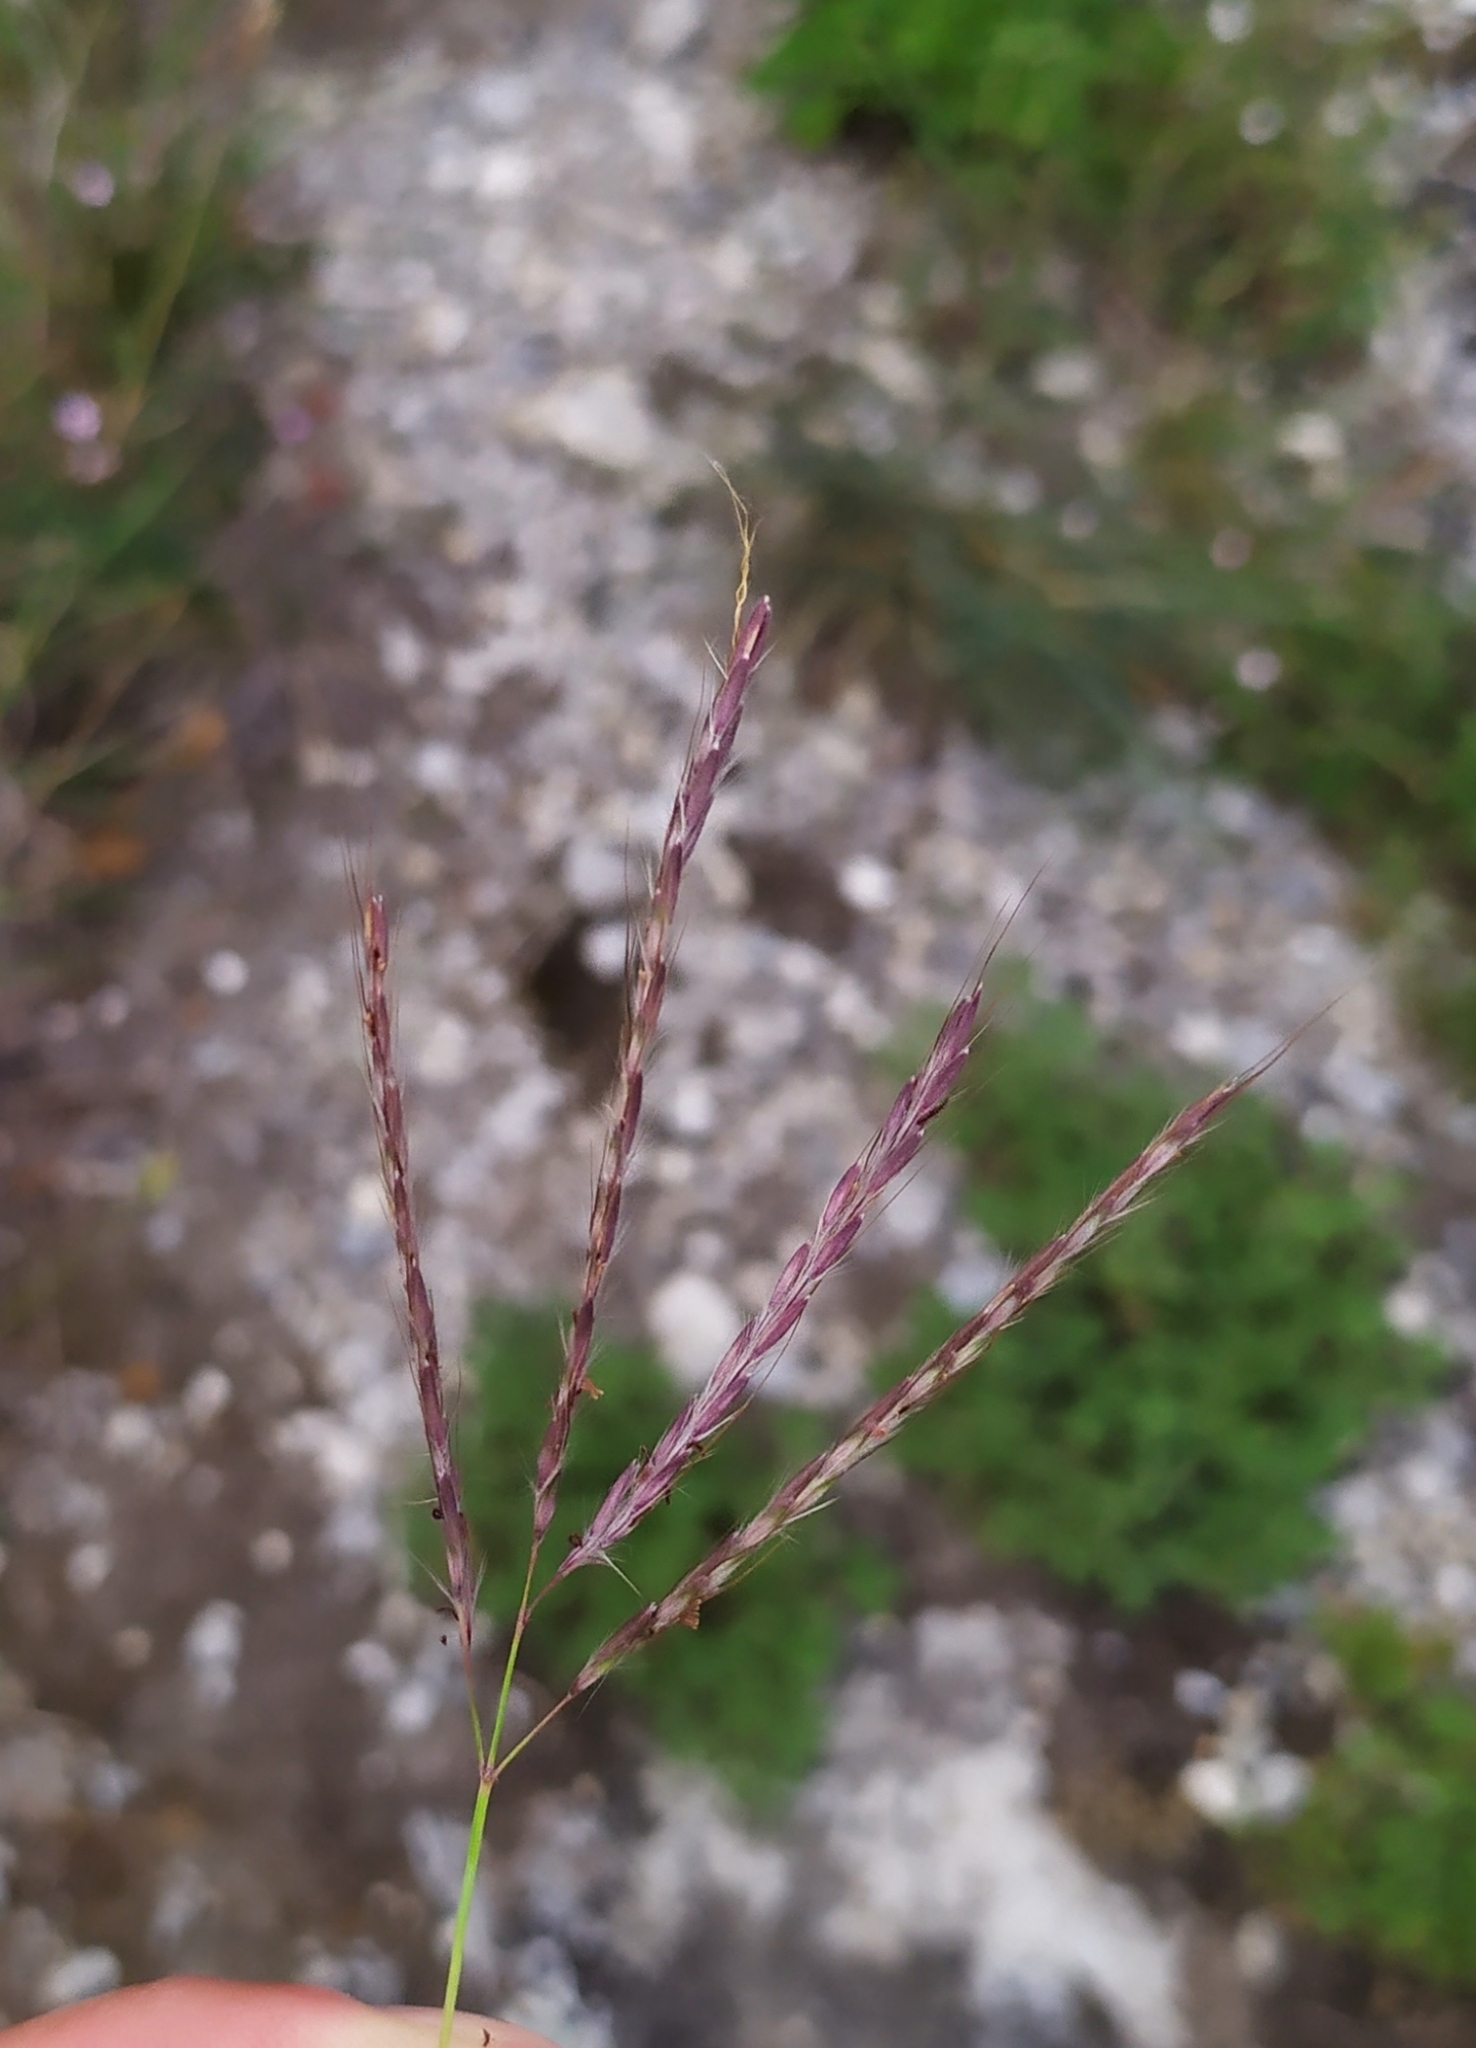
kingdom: Plantae
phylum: Tracheophyta
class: Liliopsida
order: Poales
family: Poaceae
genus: Bothriochloa
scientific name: Bothriochloa ischaemum
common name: Yellow bluestem
